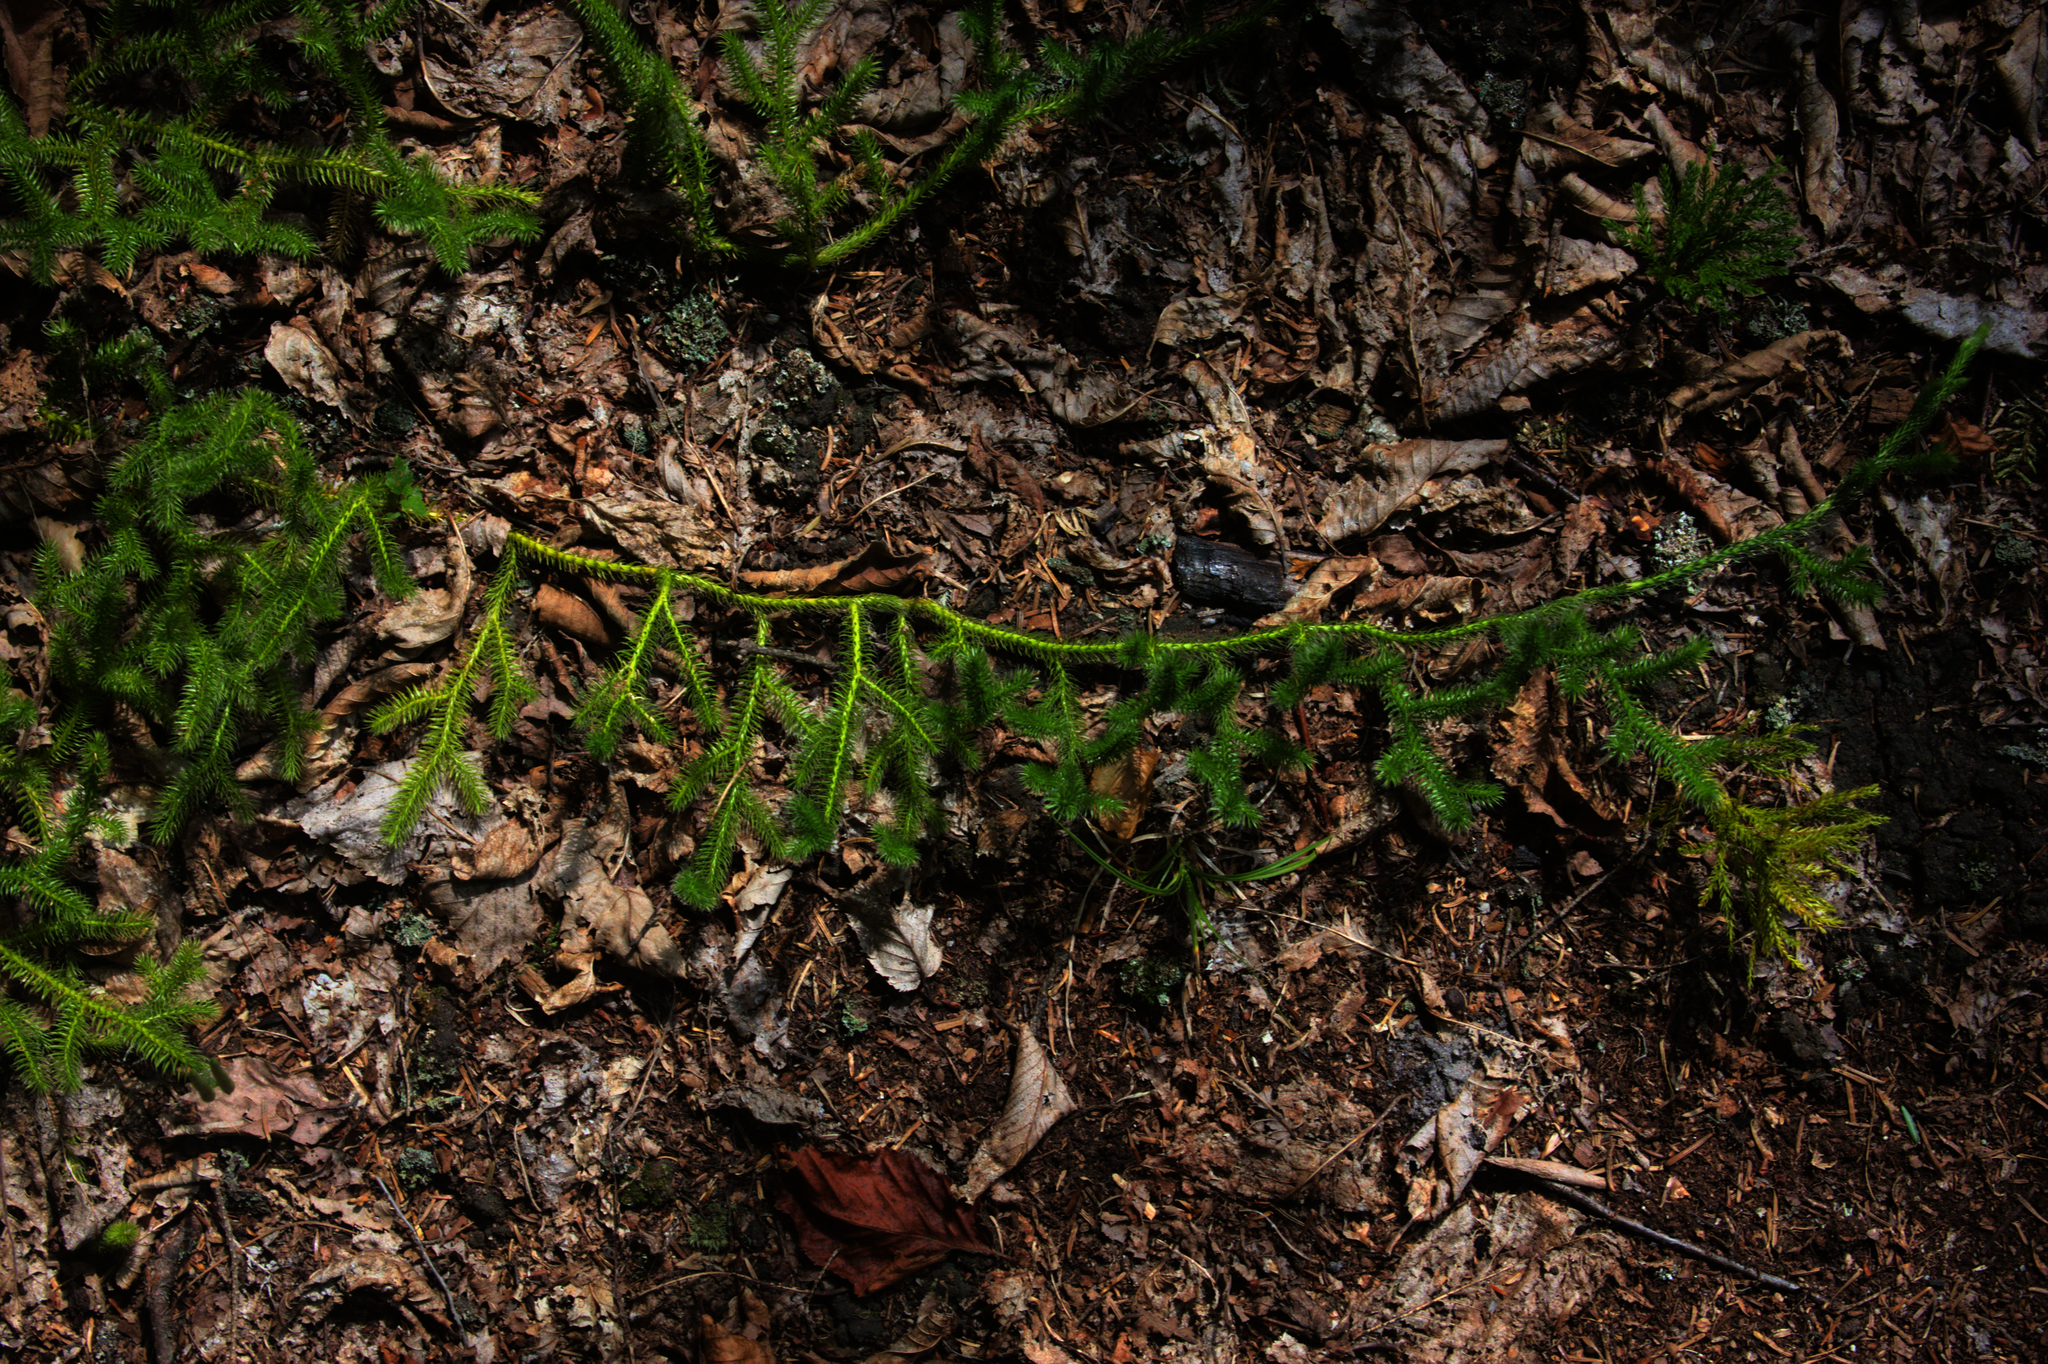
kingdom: Plantae
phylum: Tracheophyta
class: Lycopodiopsida
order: Lycopodiales
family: Lycopodiaceae
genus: Lycopodium
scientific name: Lycopodium clavatum
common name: Stag's-horn clubmoss
